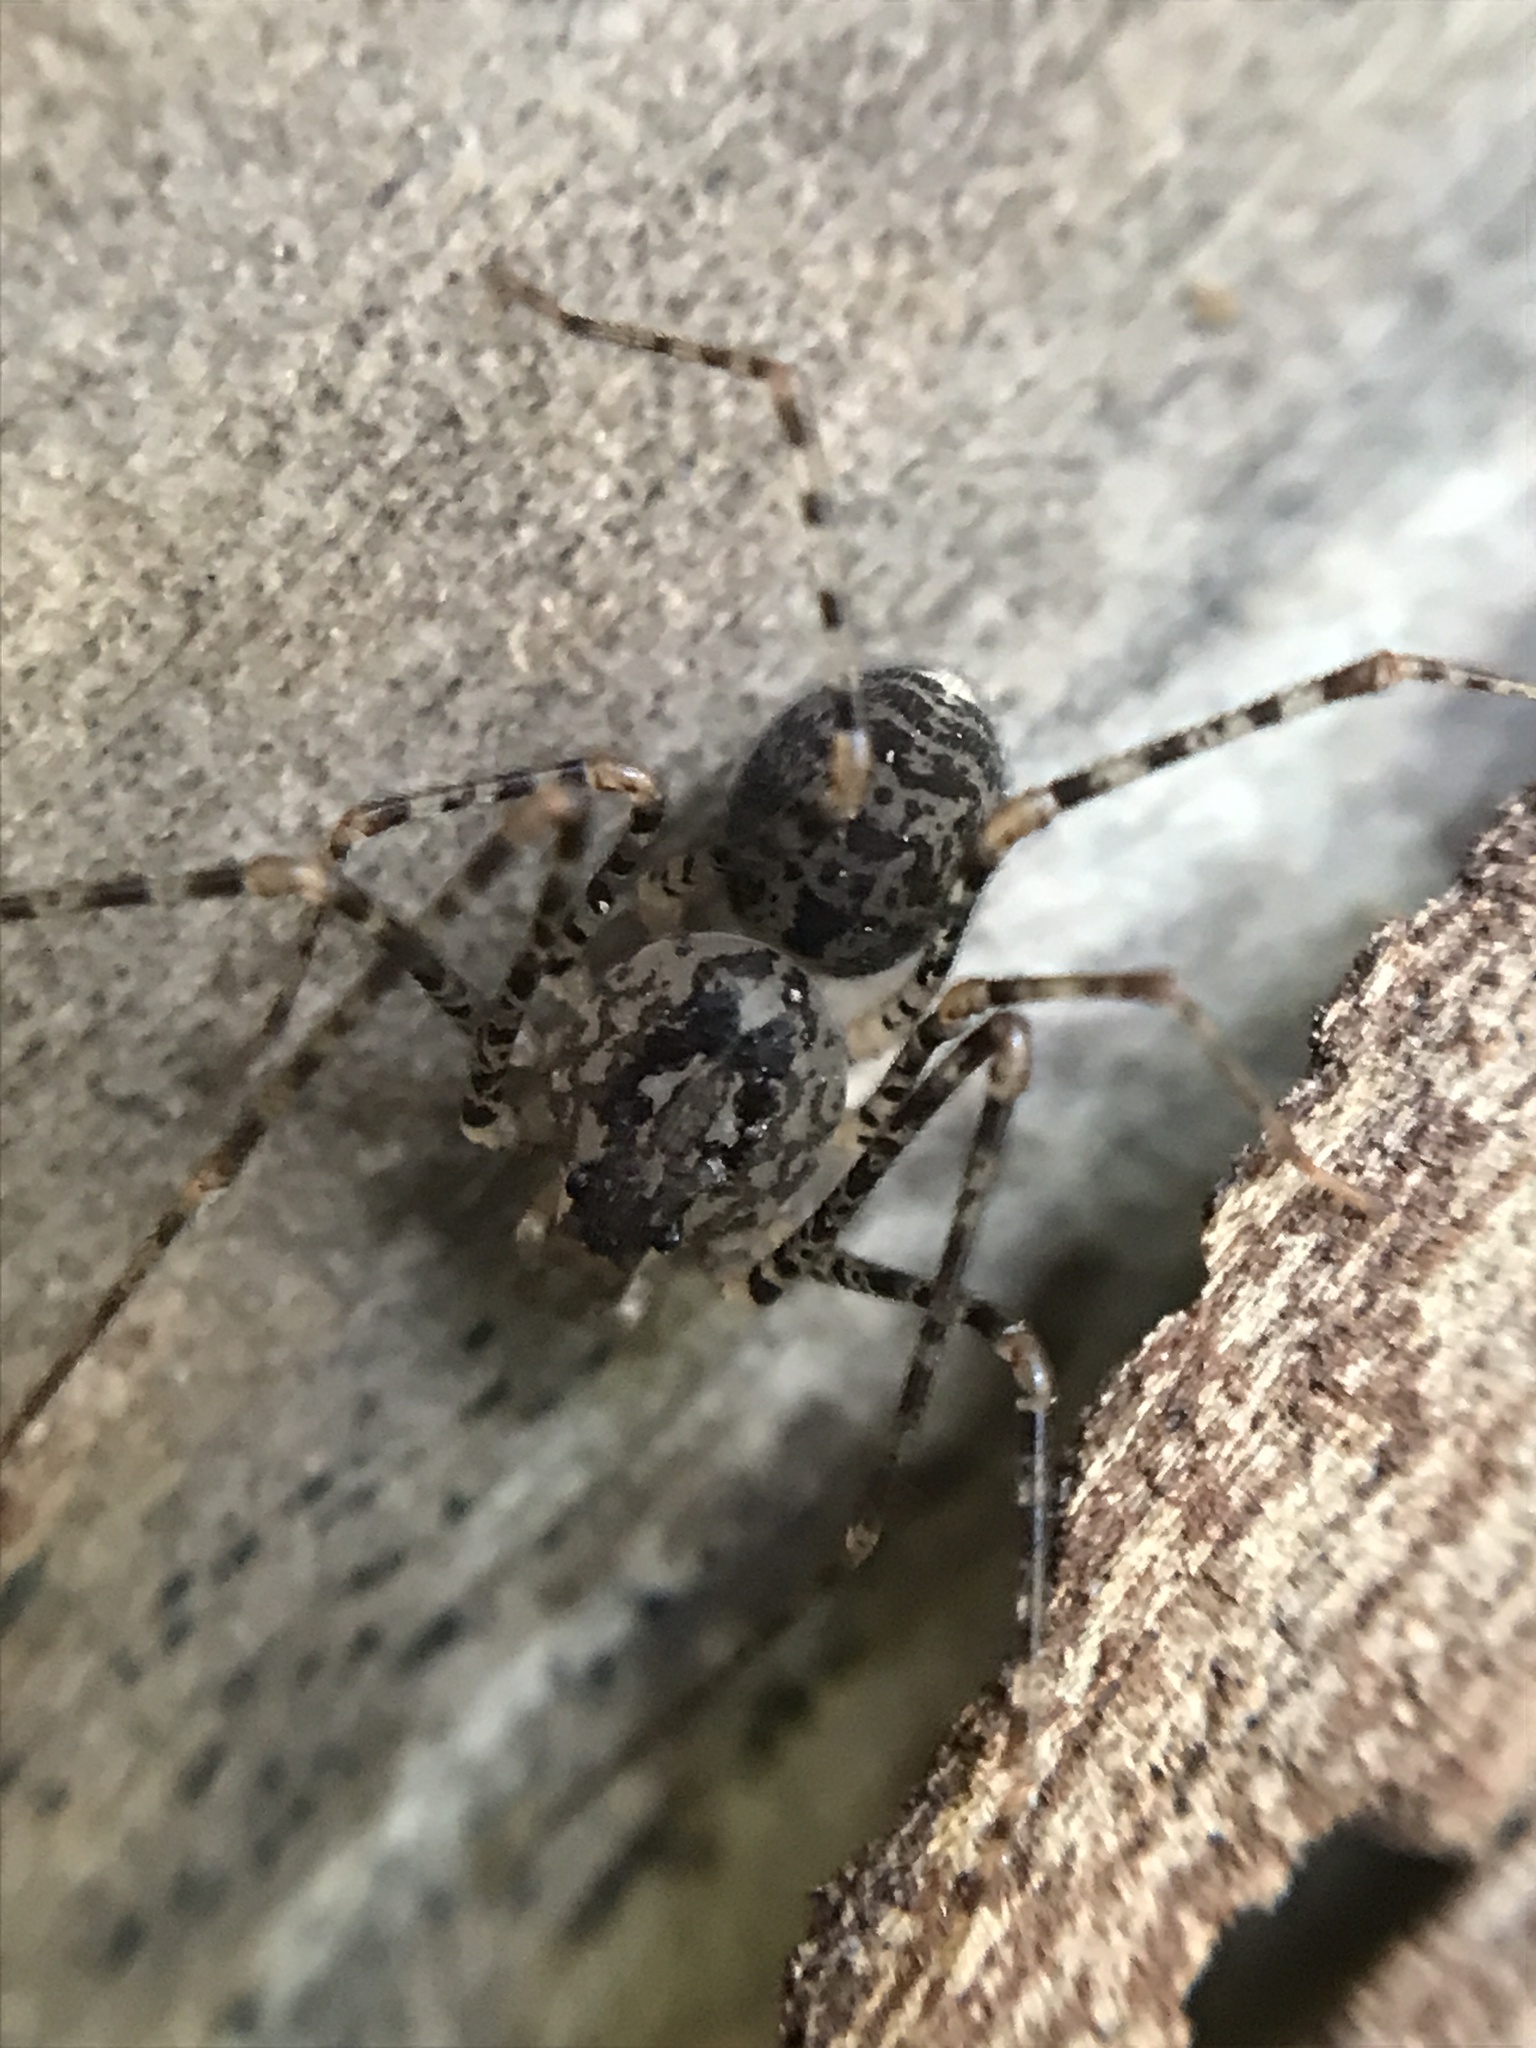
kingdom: Animalia
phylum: Arthropoda
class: Arachnida
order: Araneae
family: Scytodidae
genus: Scytodes
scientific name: Scytodes globula
